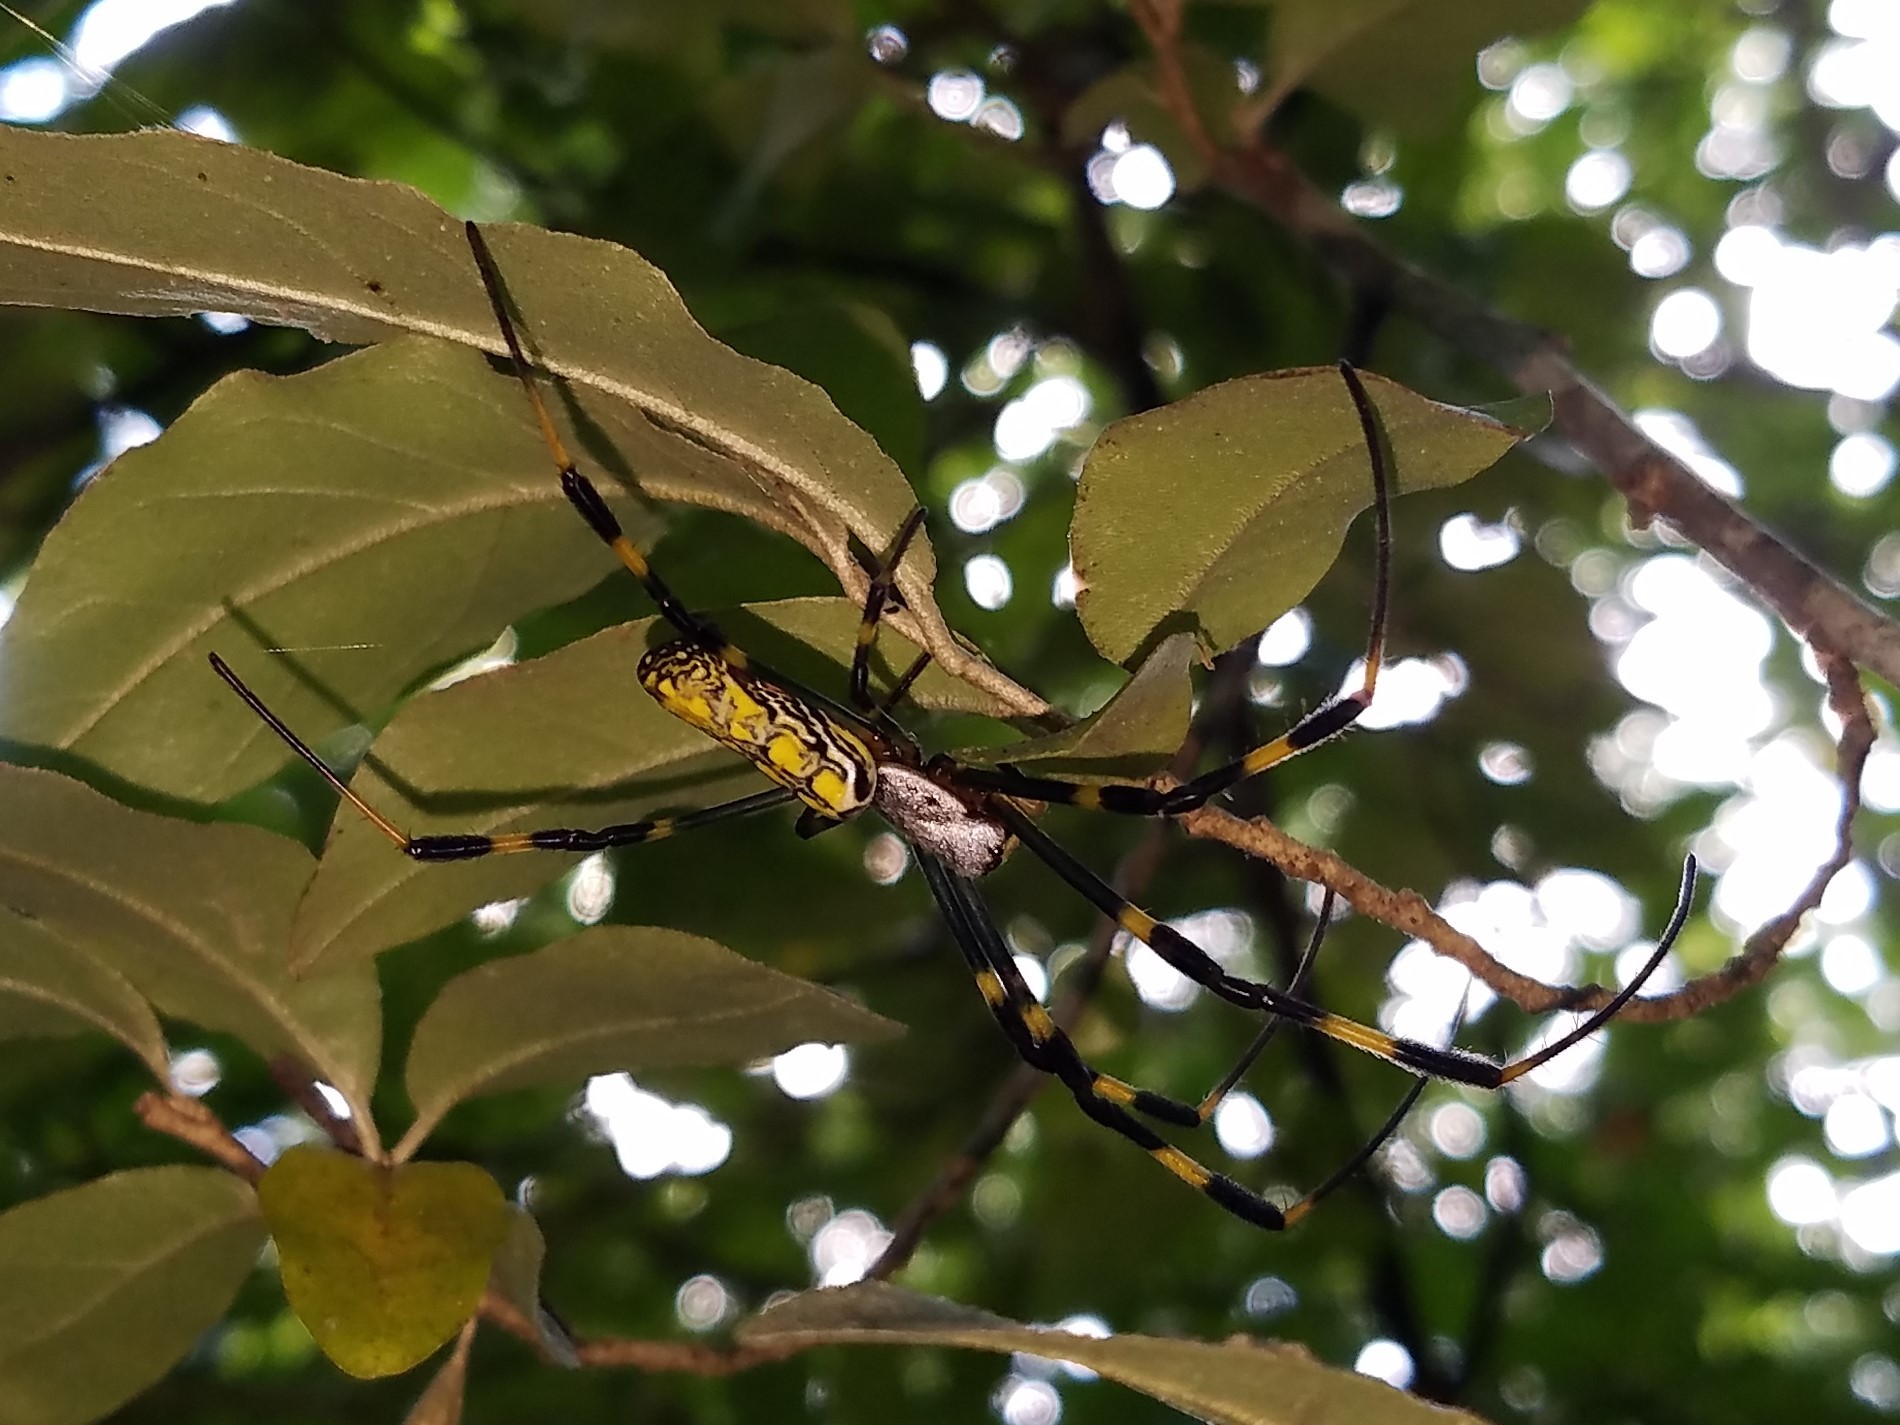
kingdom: Animalia
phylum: Arthropoda
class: Arachnida
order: Araneae
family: Araneidae
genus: Trichonephila
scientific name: Trichonephila clavata
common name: Jorō spider
